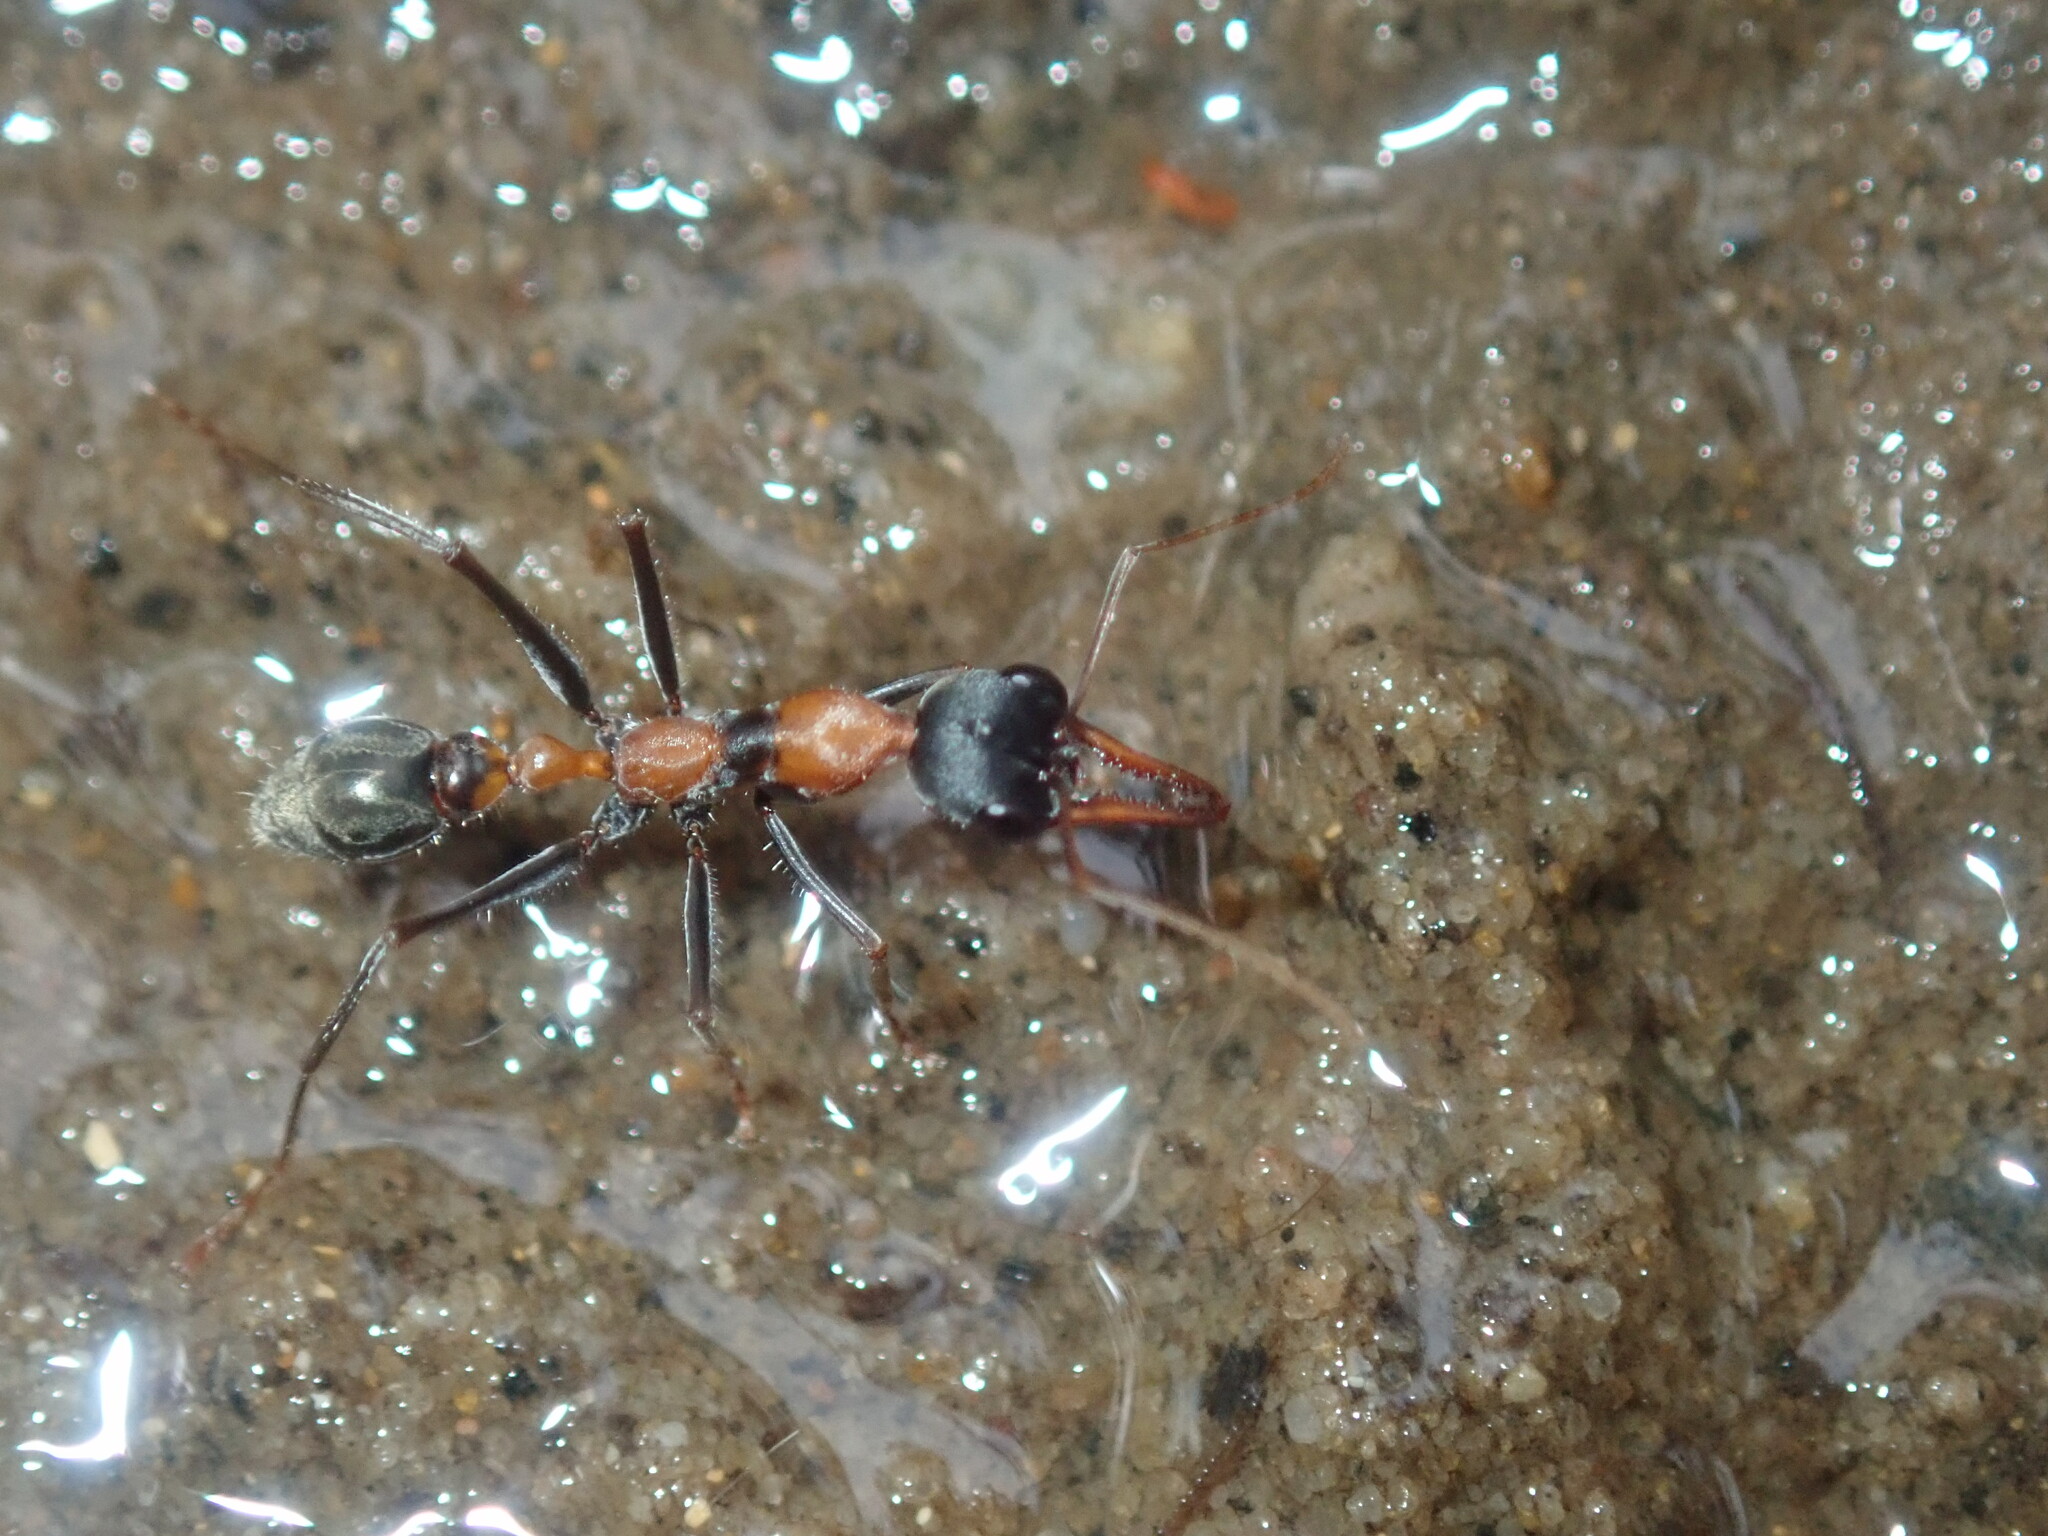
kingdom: Animalia
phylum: Arthropoda
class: Insecta
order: Hymenoptera
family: Formicidae
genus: Myrmecia
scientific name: Myrmecia nigrocincta
